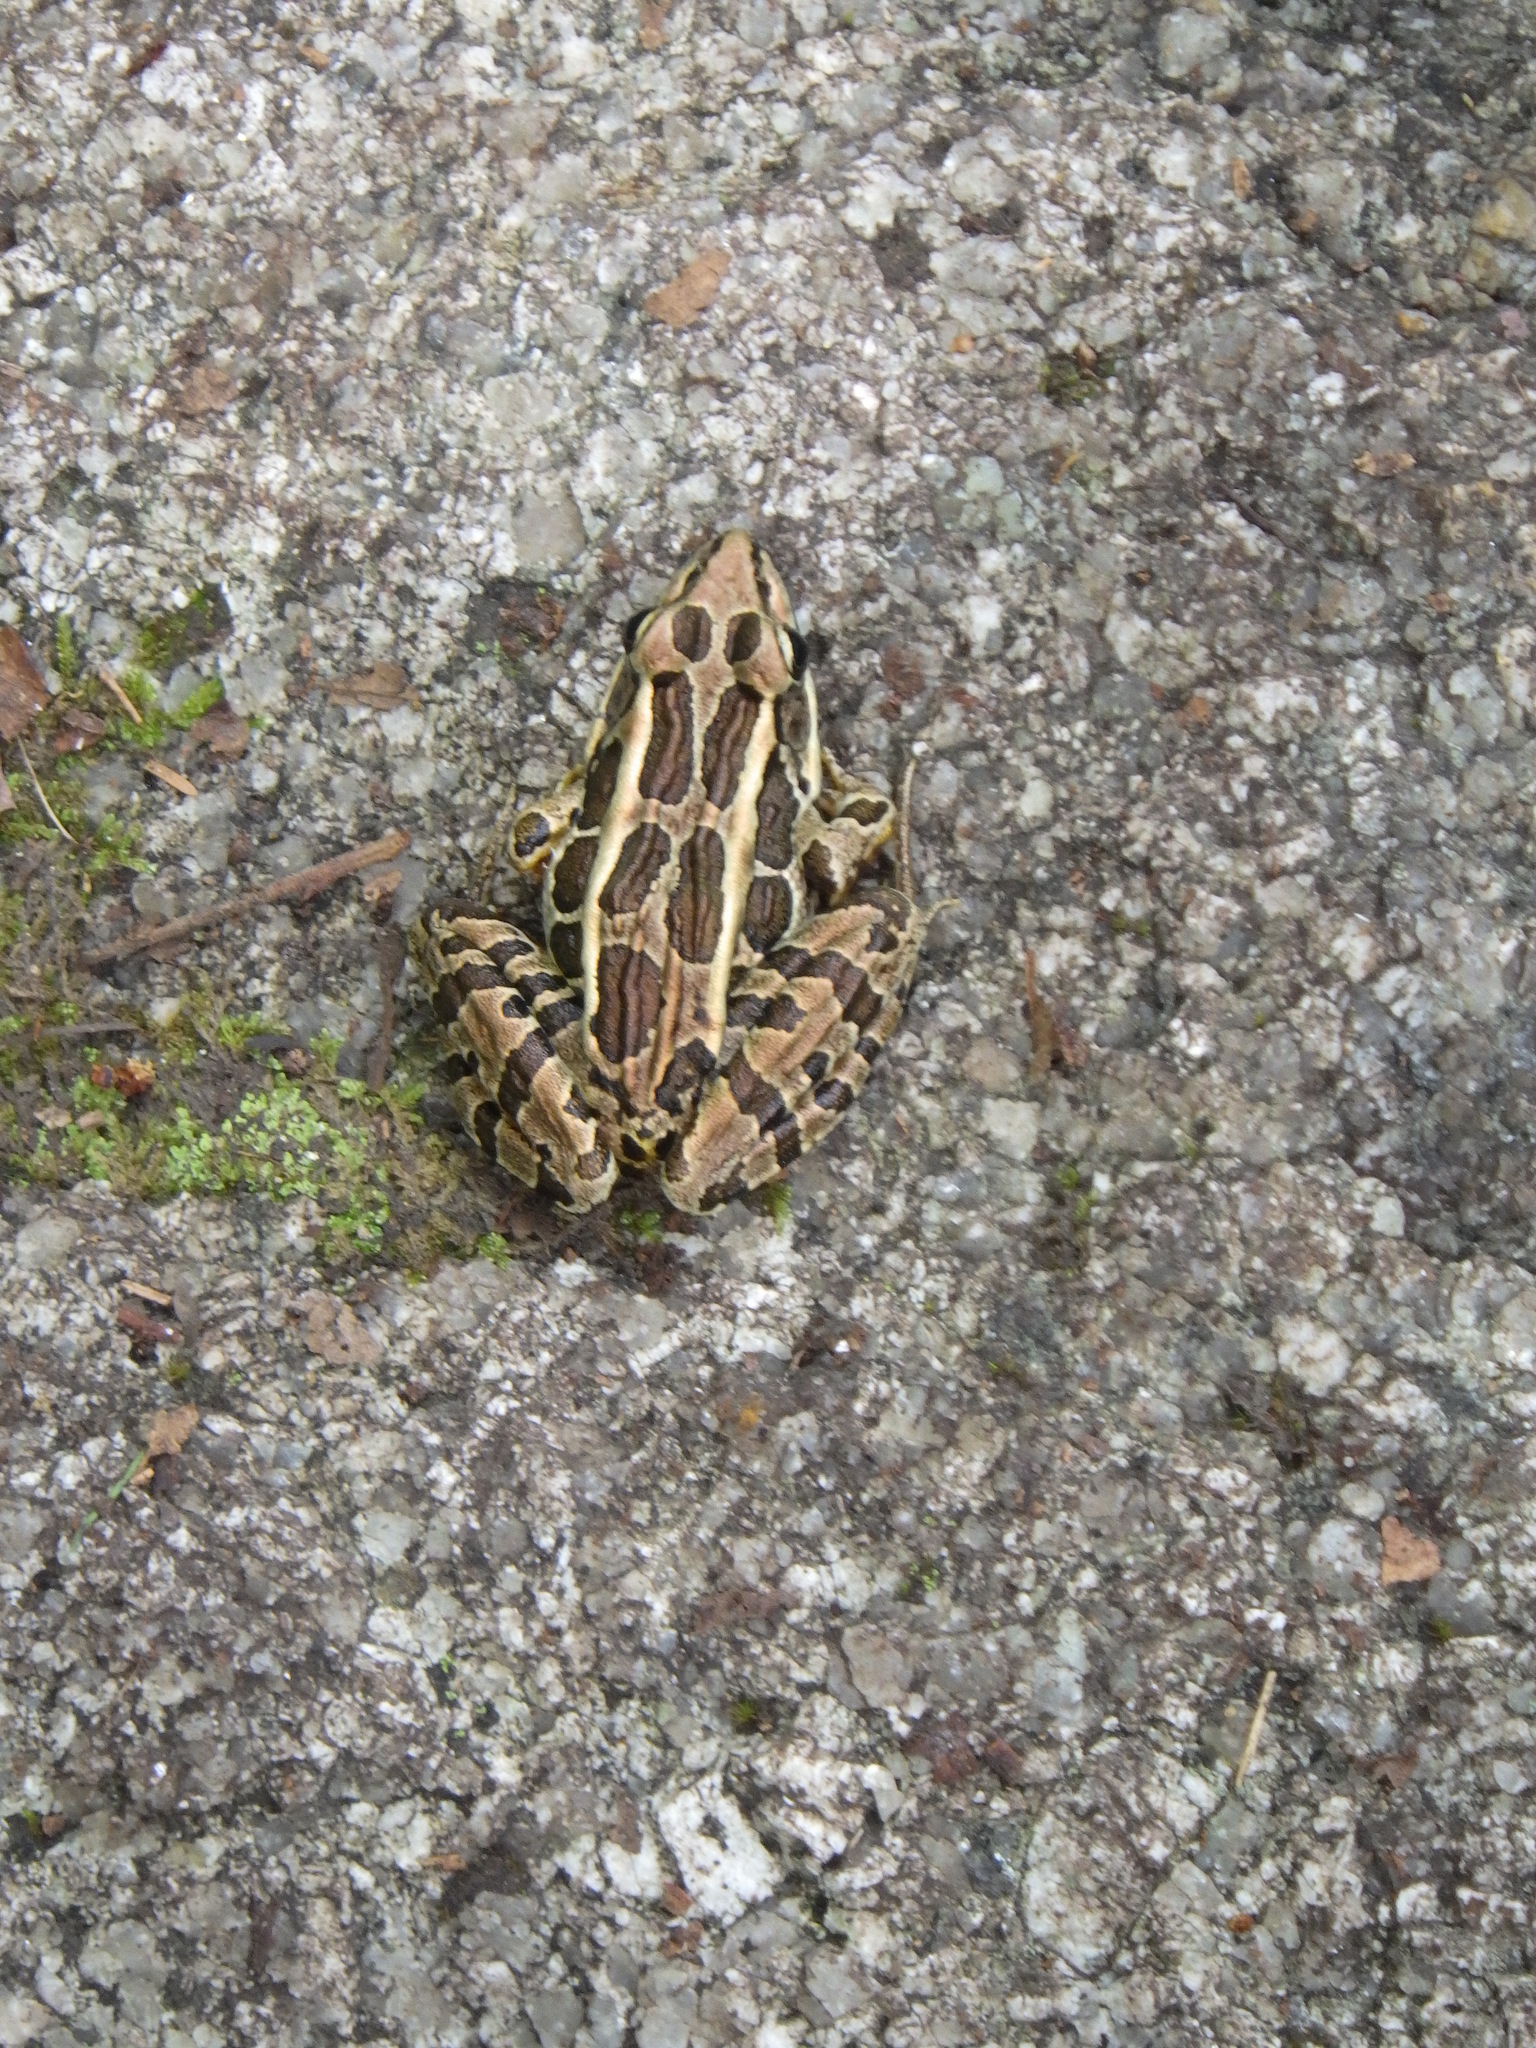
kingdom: Animalia
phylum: Chordata
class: Amphibia
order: Anura
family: Ranidae
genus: Lithobates
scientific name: Lithobates palustris
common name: Pickerel frog
